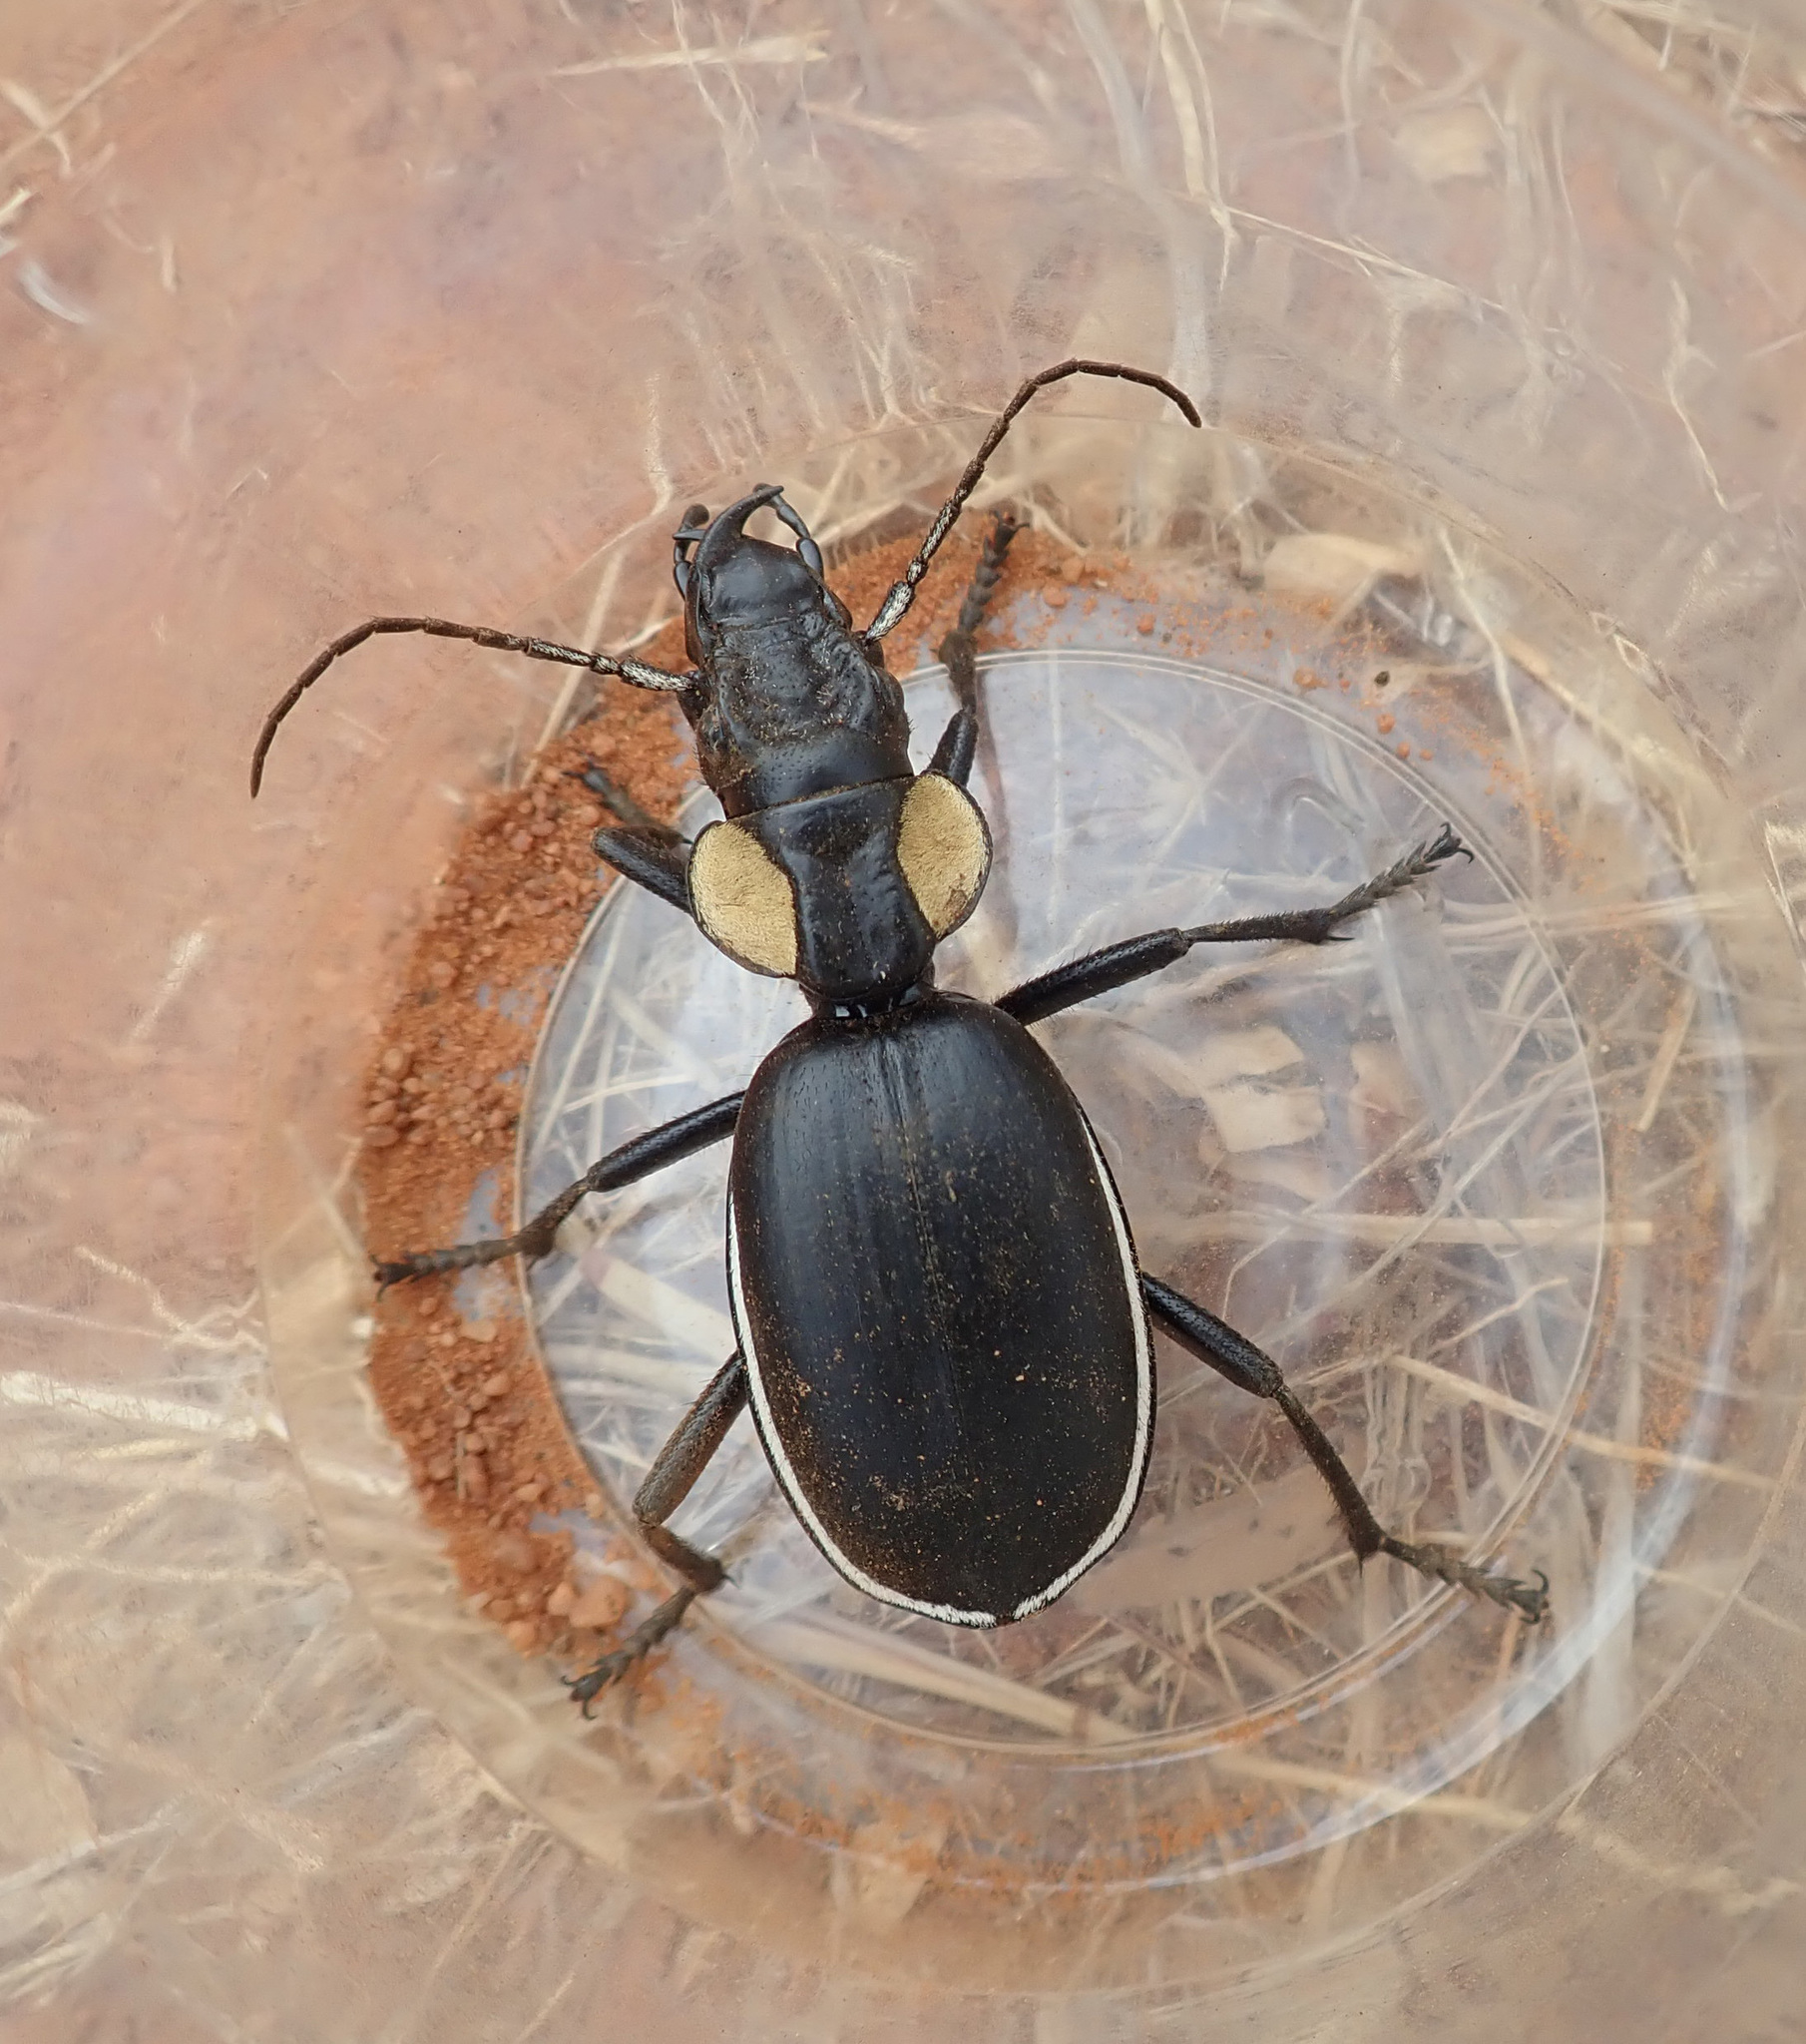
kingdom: Animalia
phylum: Arthropoda
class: Insecta
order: Coleoptera
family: Carabidae
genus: Anthia
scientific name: Anthia thoracica
